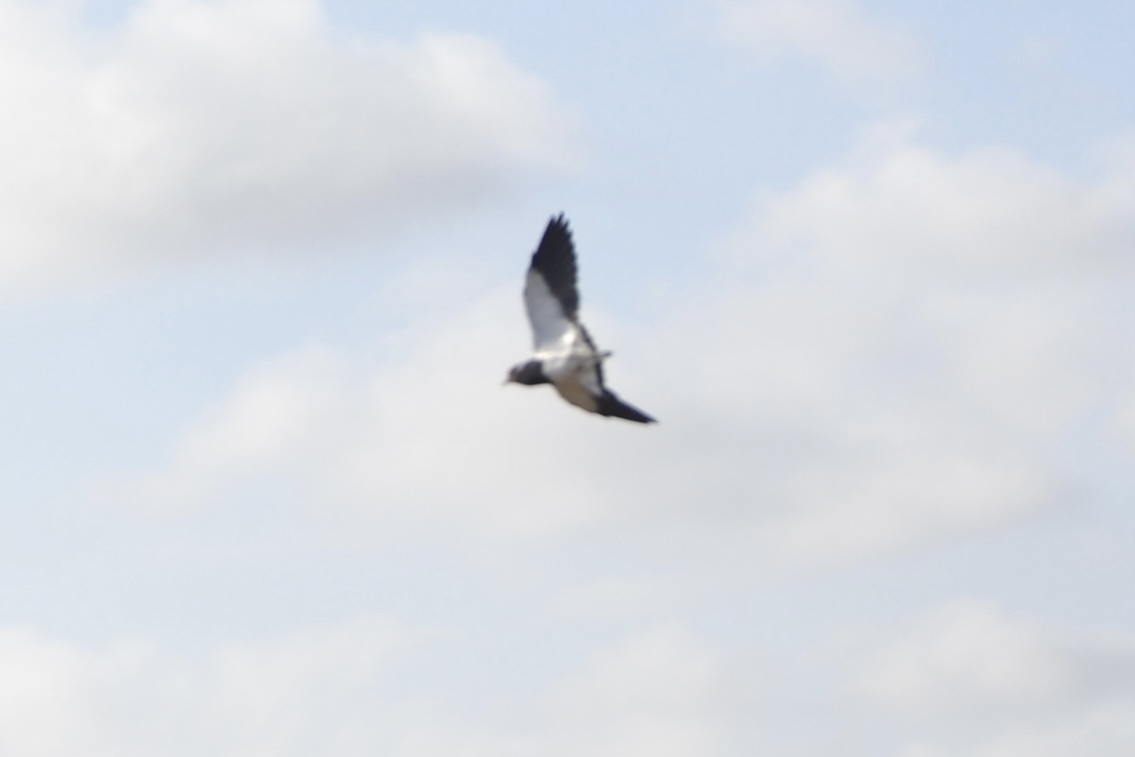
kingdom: Animalia
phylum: Chordata
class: Aves
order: Charadriiformes
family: Charadriidae
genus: Vanellus
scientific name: Vanellus armatus
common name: Blacksmith lapwing
